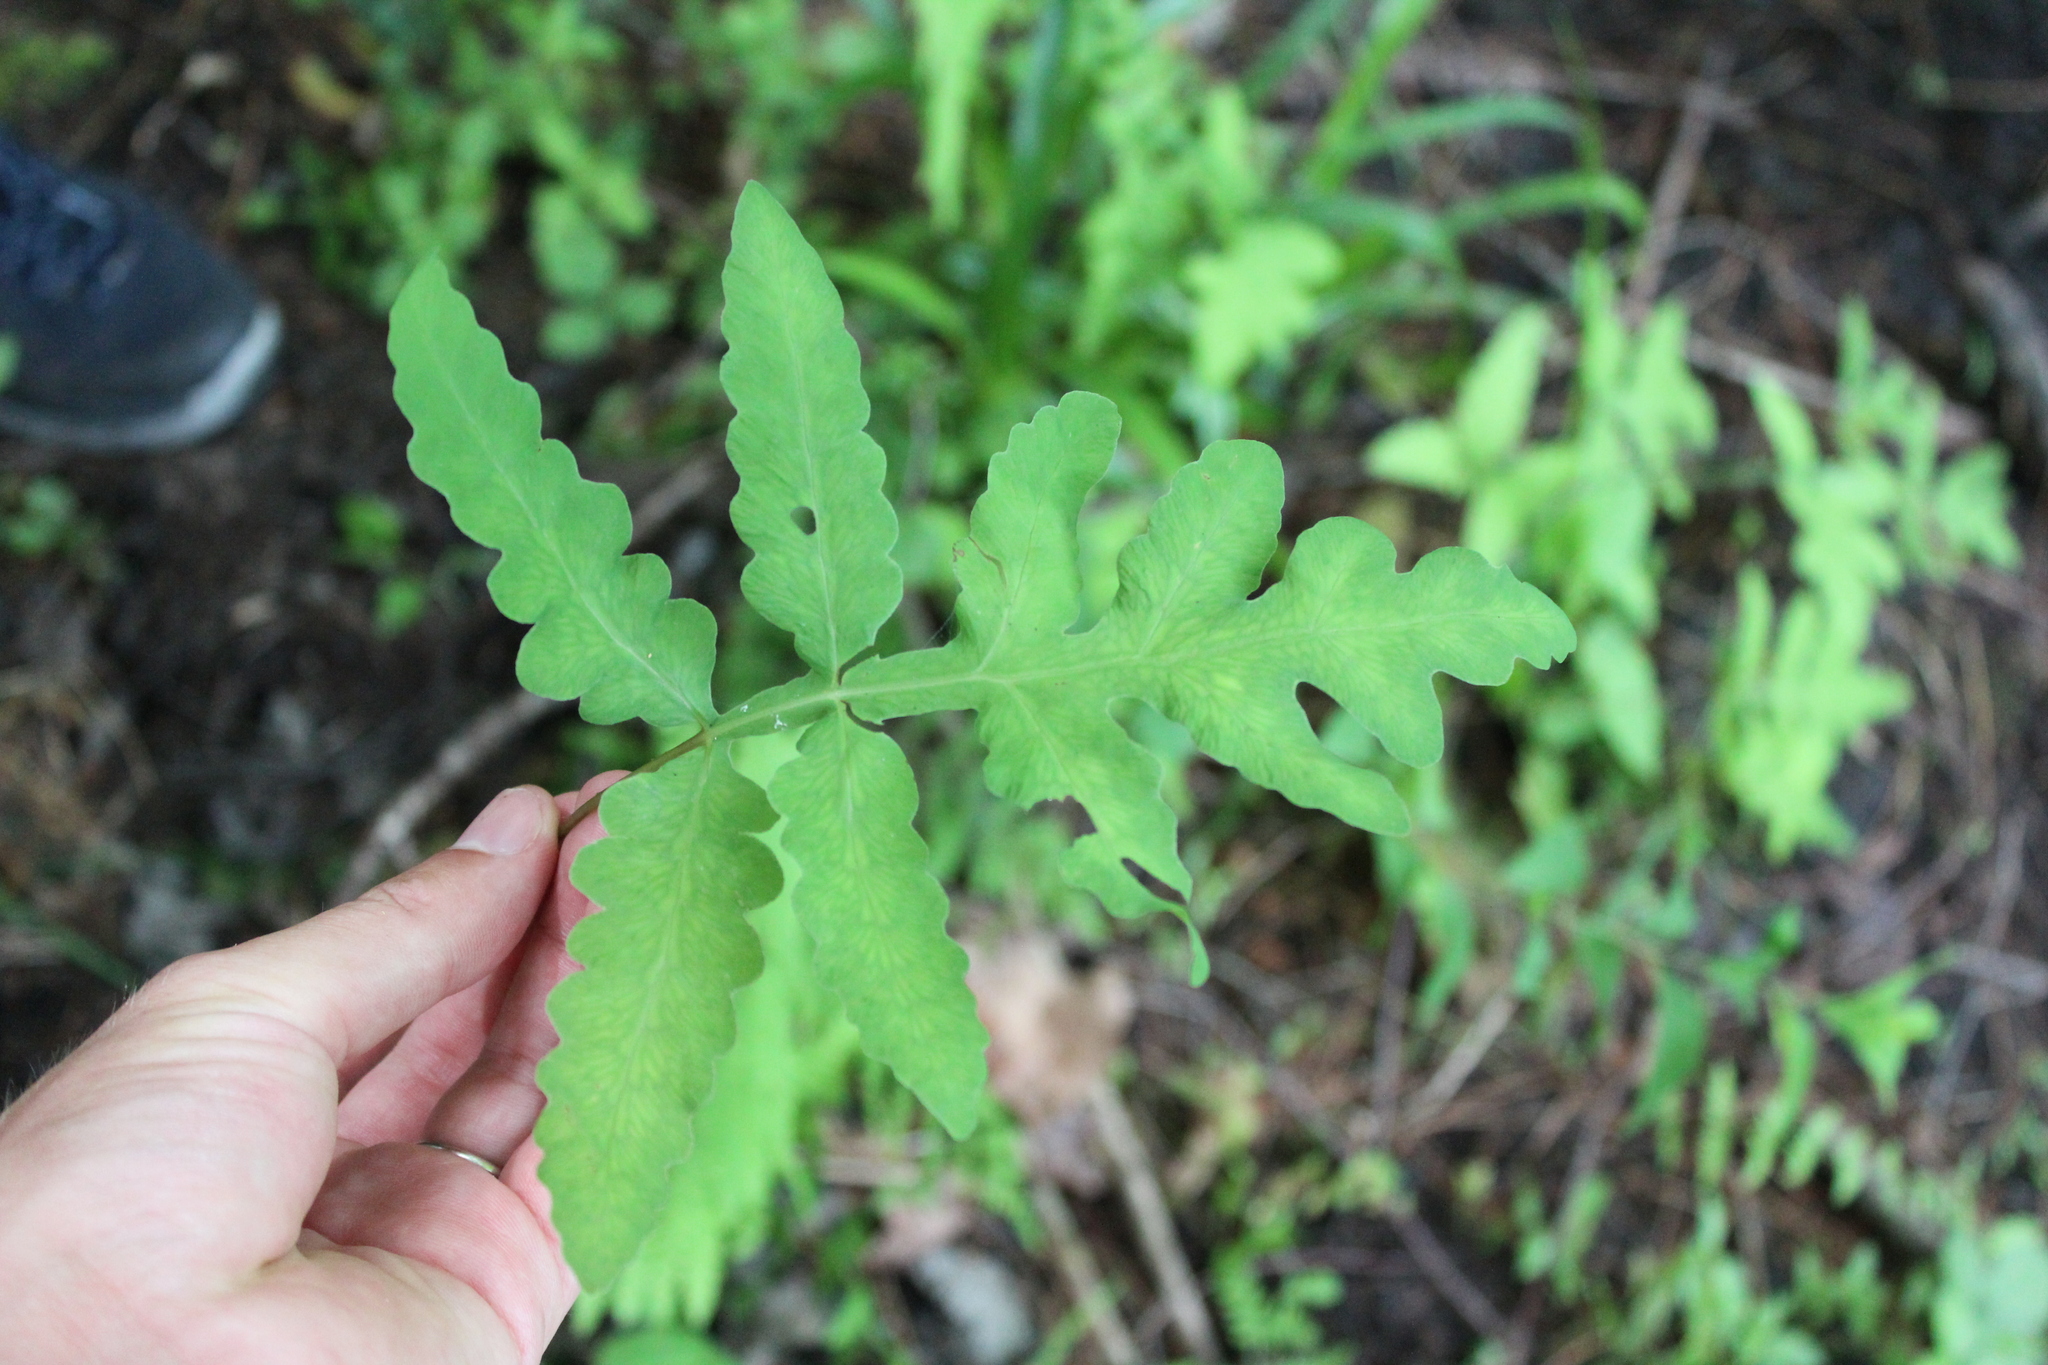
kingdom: Plantae
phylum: Tracheophyta
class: Polypodiopsida
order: Polypodiales
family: Onocleaceae
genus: Onoclea
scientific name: Onoclea sensibilis
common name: Sensitive fern
